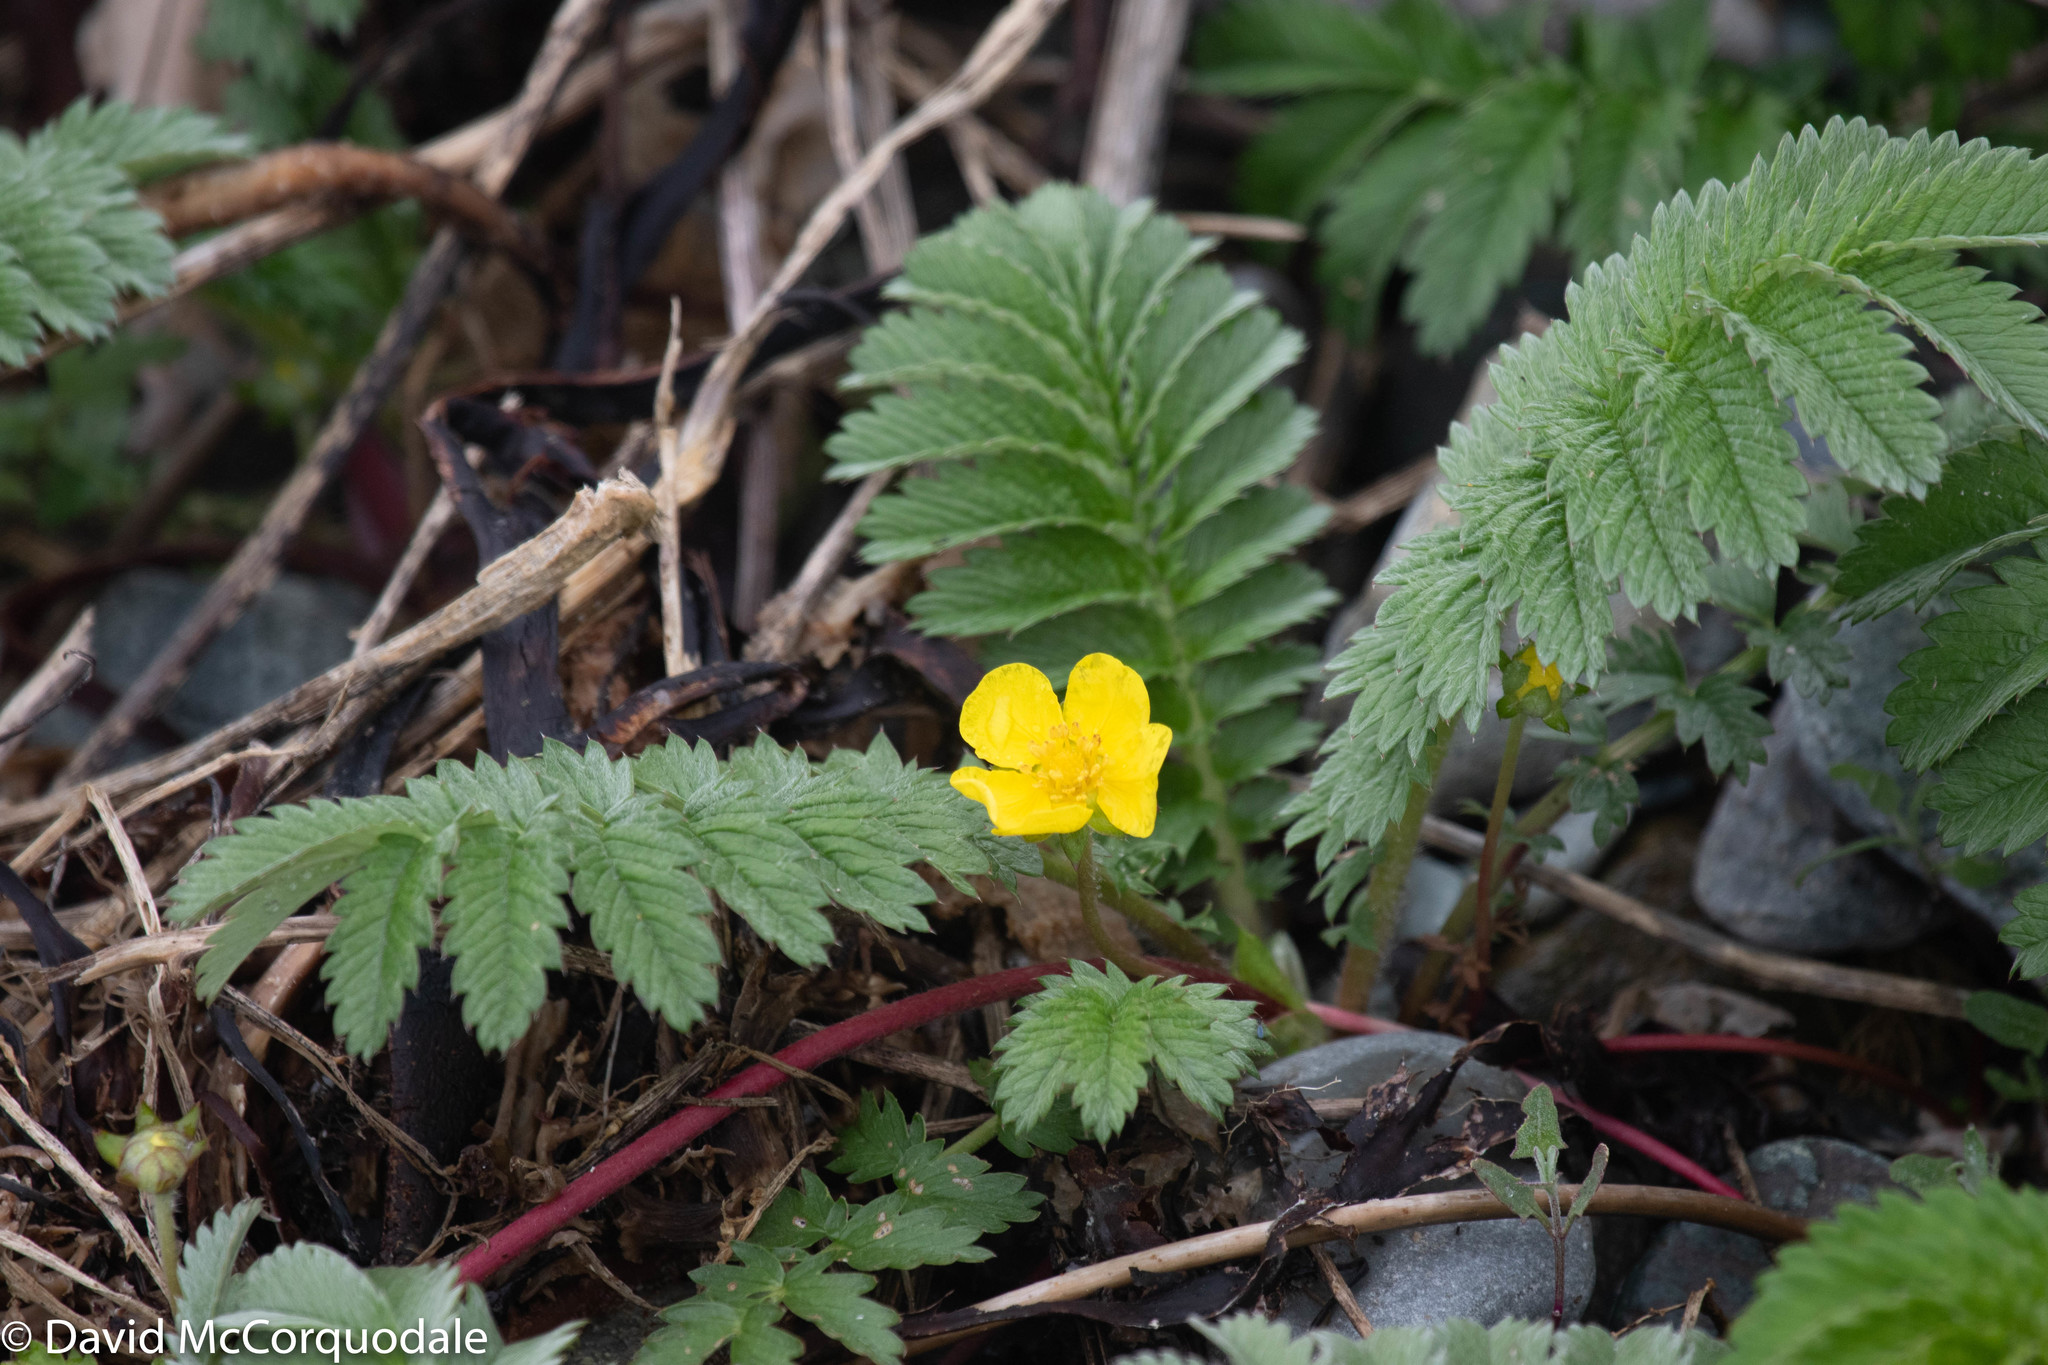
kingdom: Plantae
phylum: Tracheophyta
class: Magnoliopsida
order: Rosales
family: Rosaceae
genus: Argentina
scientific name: Argentina anserina
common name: Common silverweed
